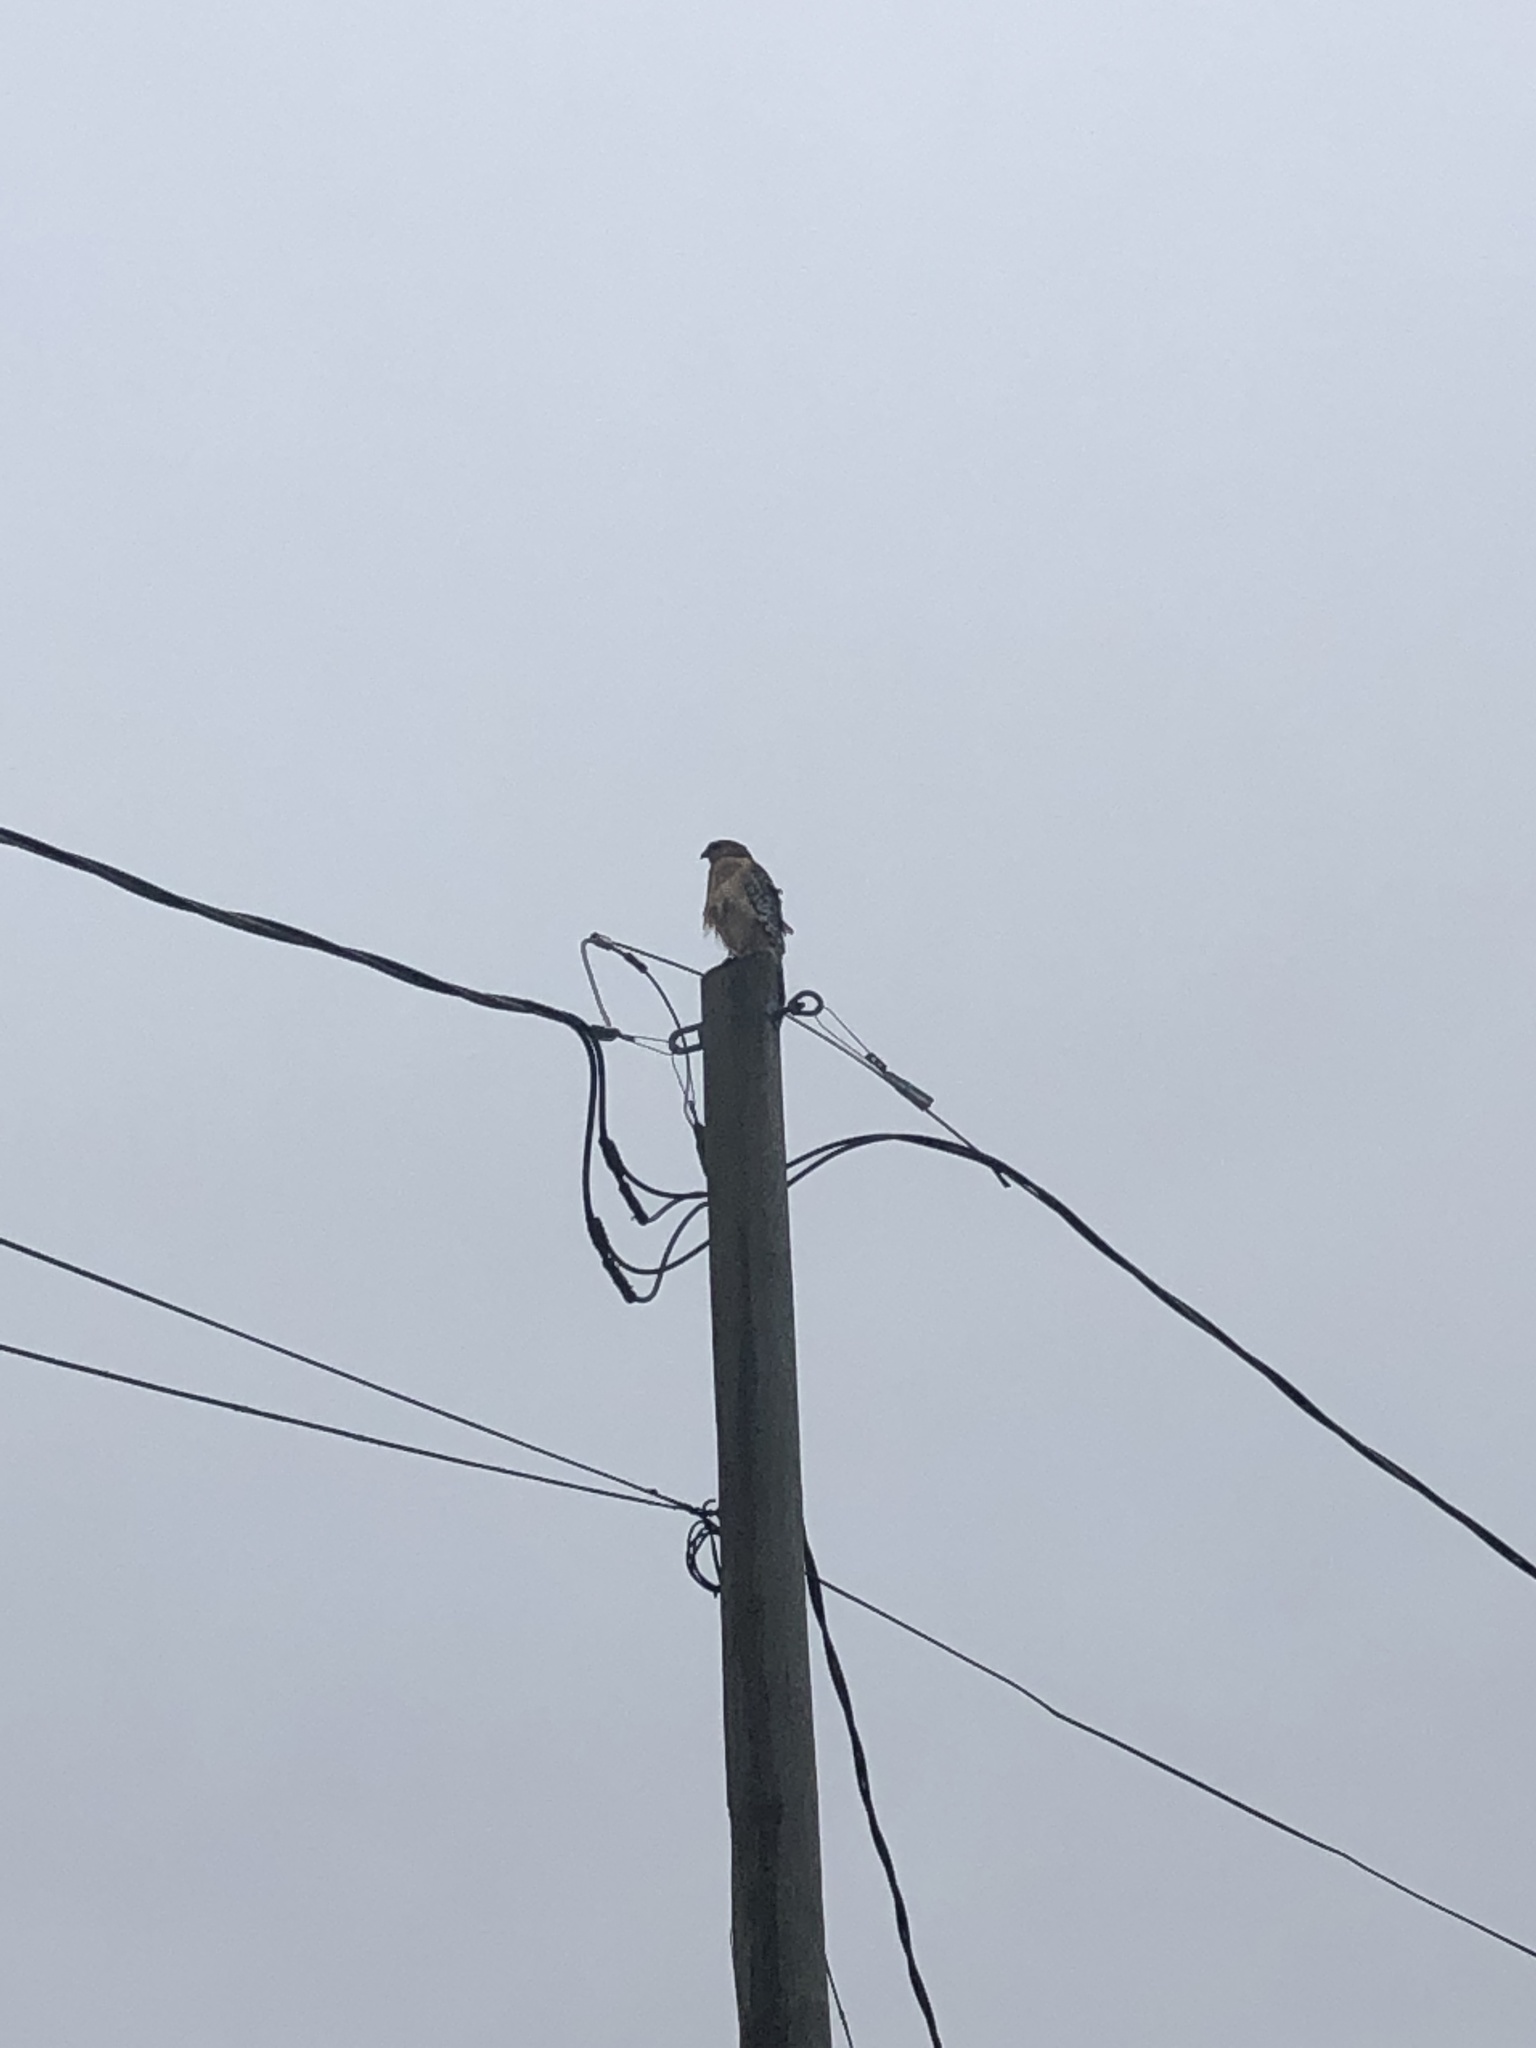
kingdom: Animalia
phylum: Chordata
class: Aves
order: Accipitriformes
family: Accipitridae
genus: Buteo
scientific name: Buteo lineatus
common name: Red-shouldered hawk
